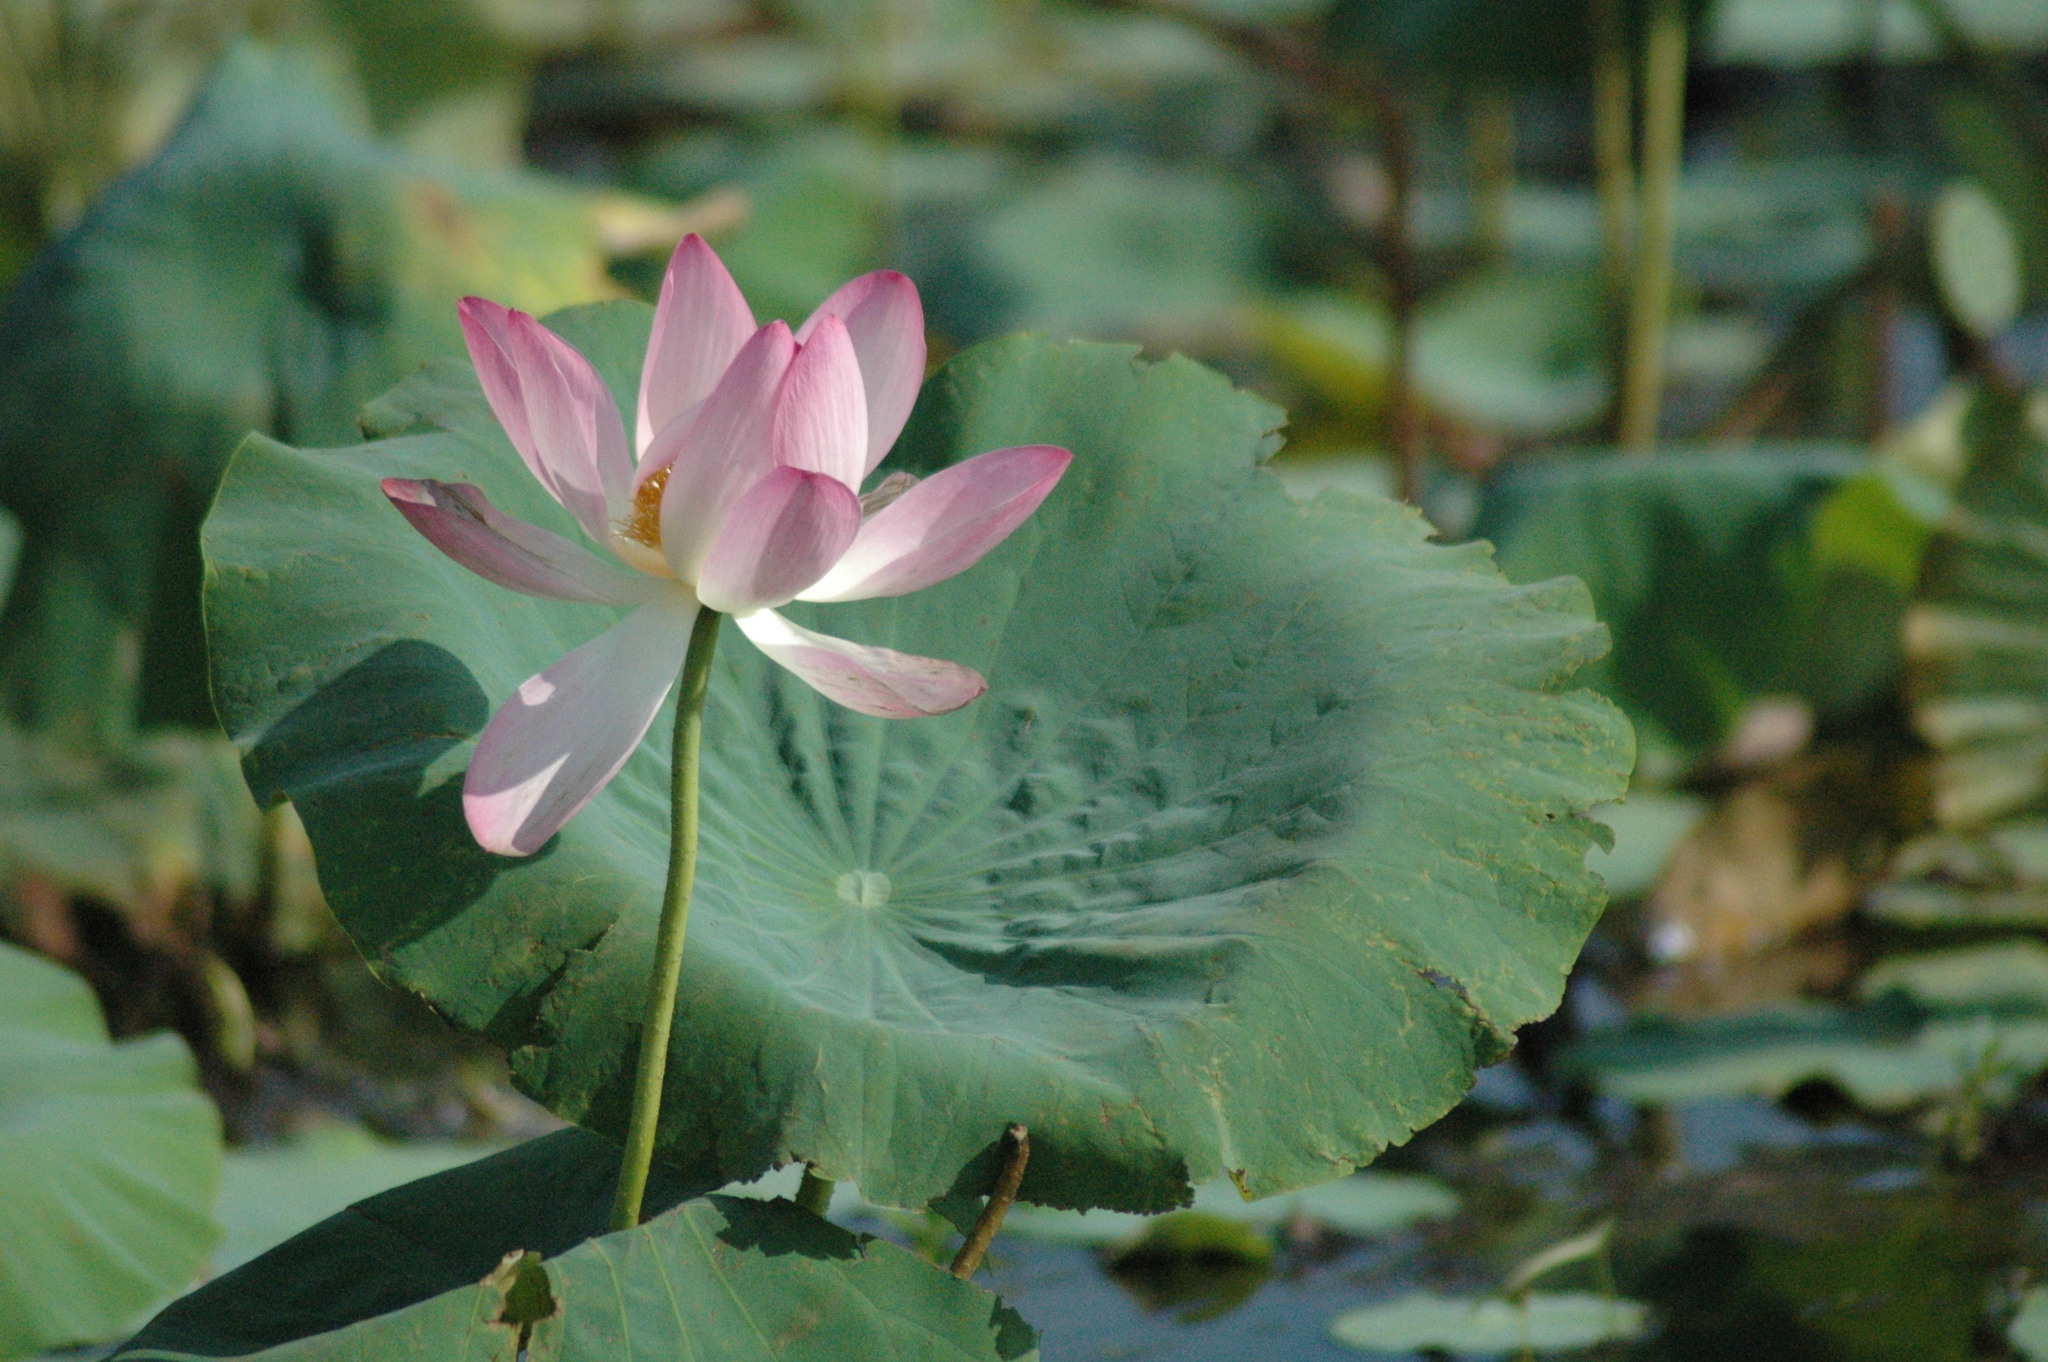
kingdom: Plantae
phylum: Tracheophyta
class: Magnoliopsida
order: Proteales
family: Nelumbonaceae
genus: Nelumbo
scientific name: Nelumbo nucifera
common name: Sacred lotus
